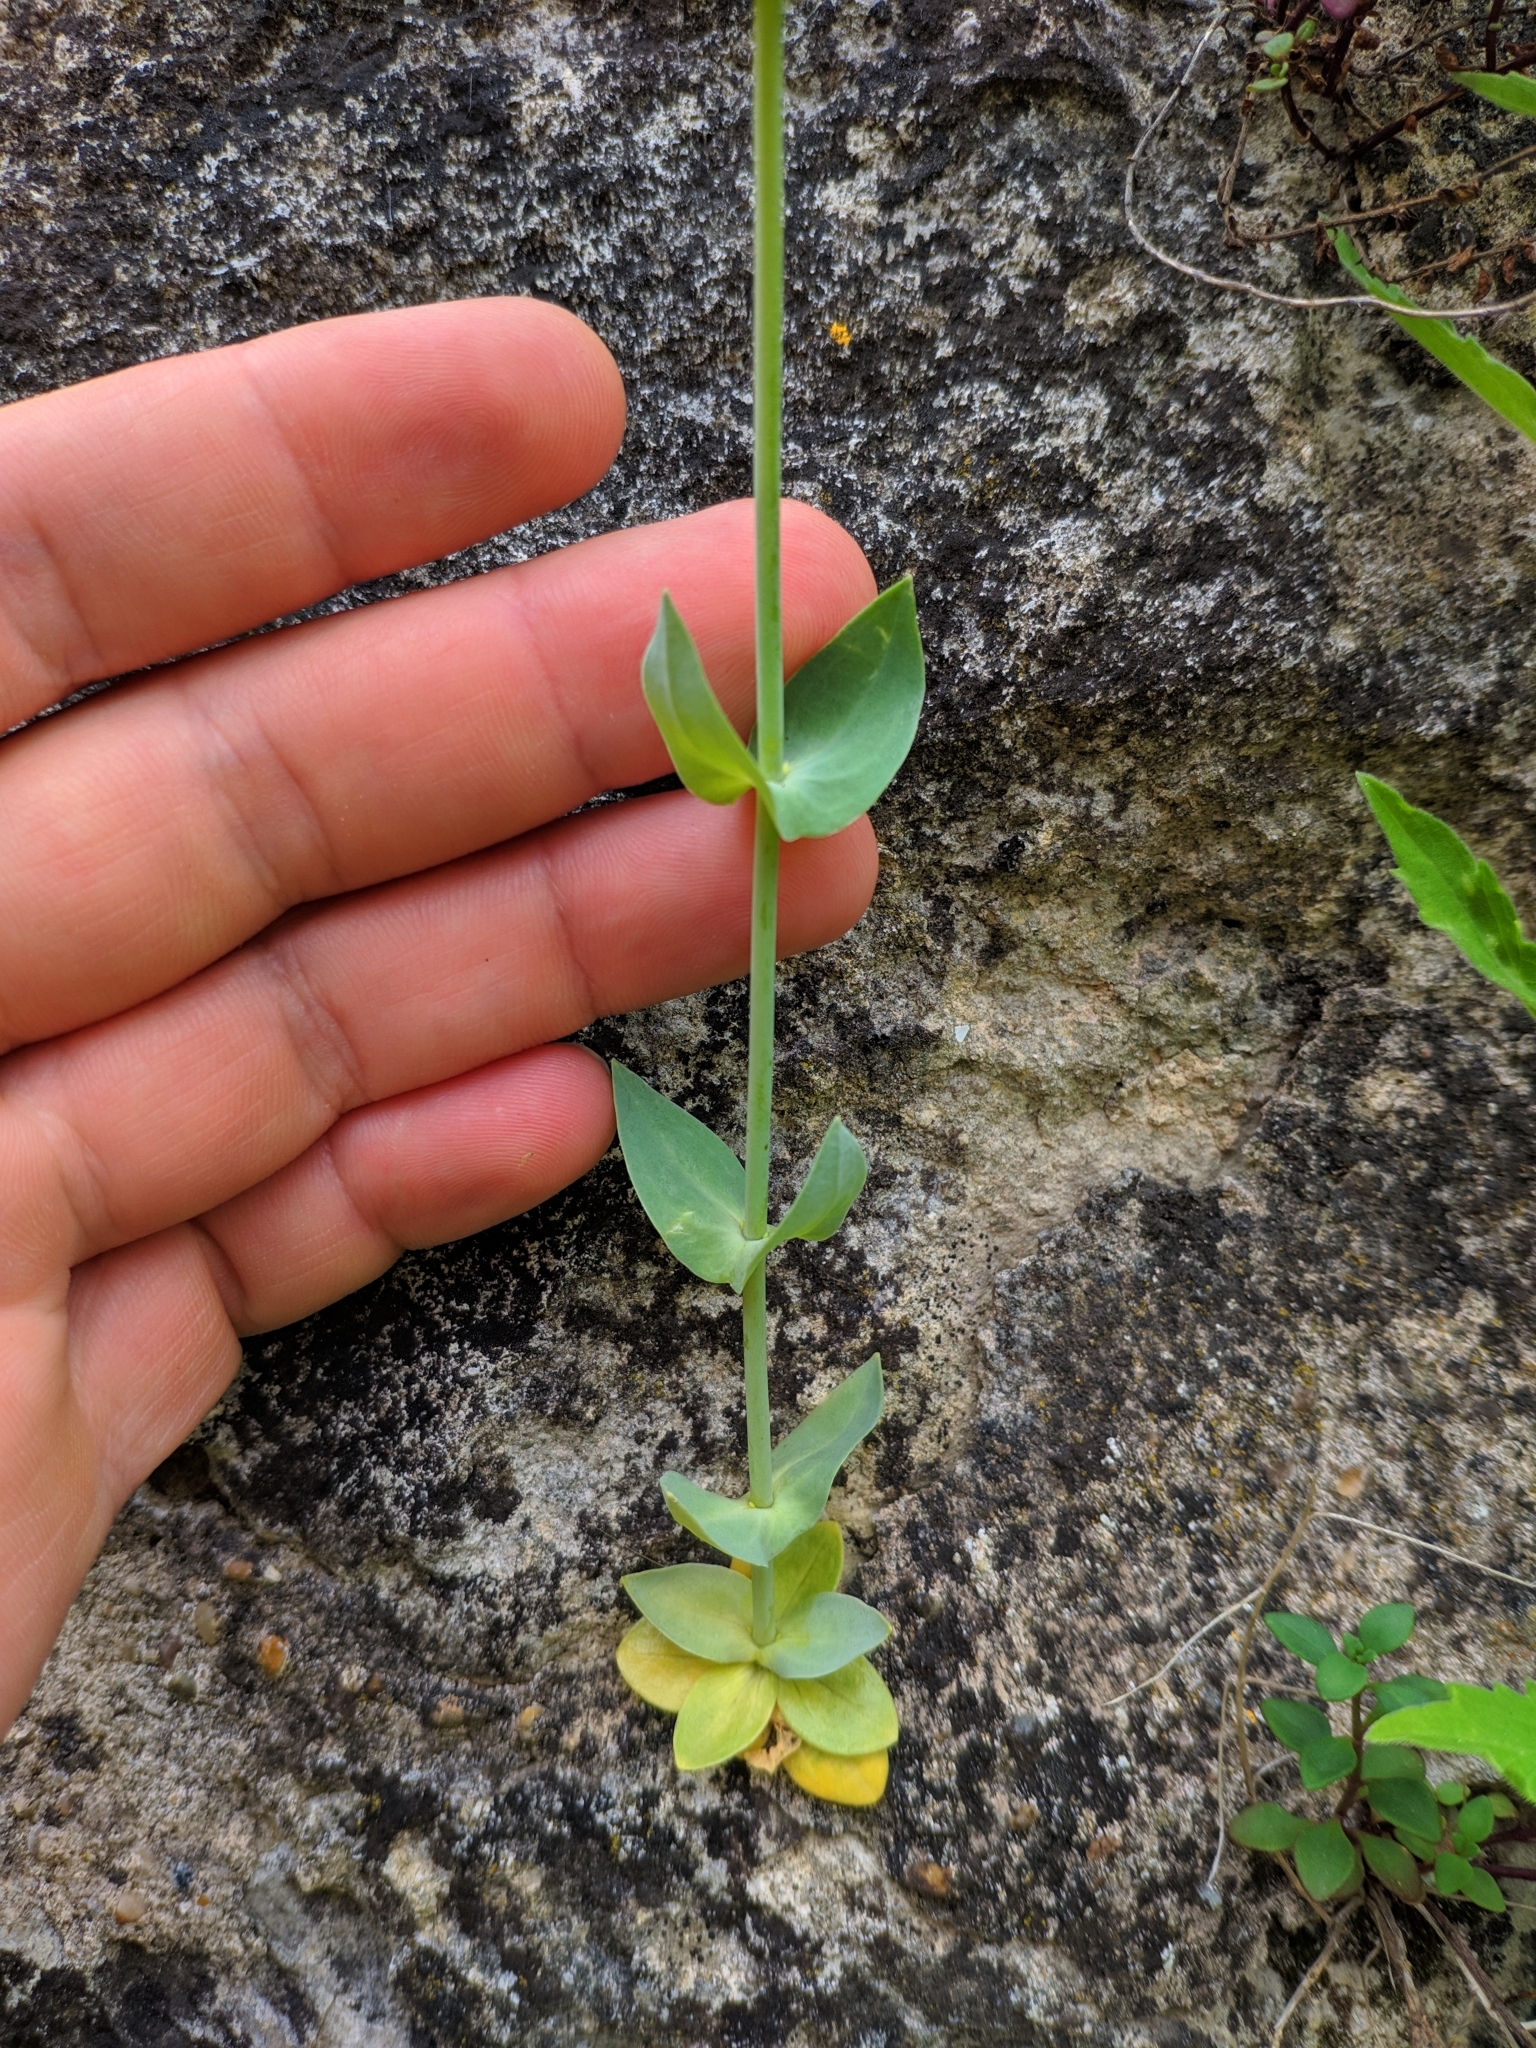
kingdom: Plantae
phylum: Tracheophyta
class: Magnoliopsida
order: Gentianales
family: Gentianaceae
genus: Blackstonia
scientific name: Blackstonia perfoliata
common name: Yellow-wort
